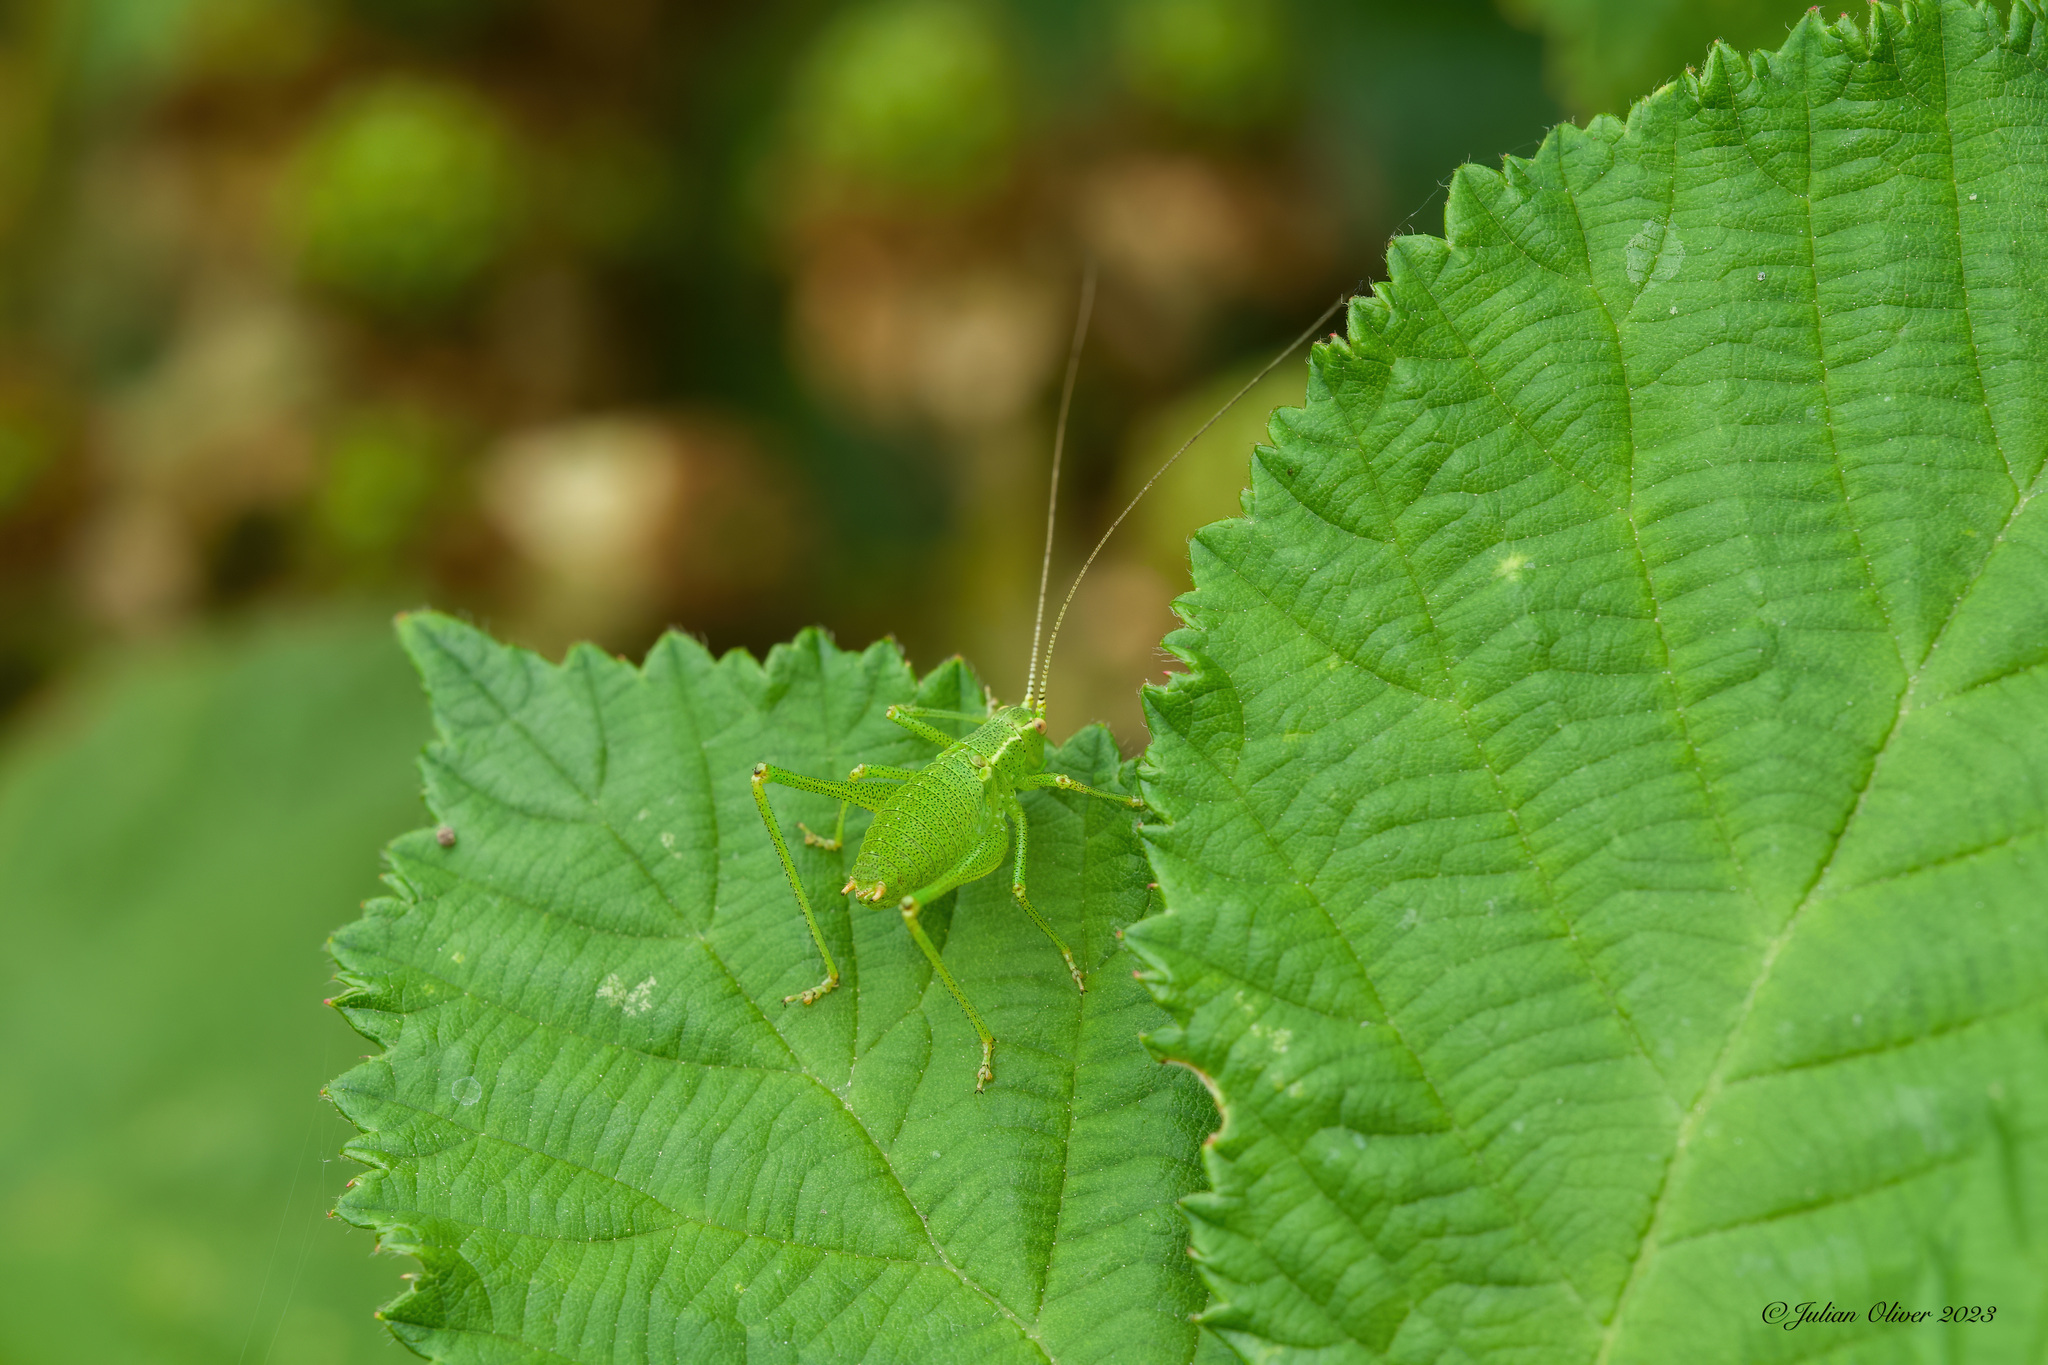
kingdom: Animalia
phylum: Arthropoda
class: Insecta
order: Orthoptera
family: Tettigoniidae
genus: Leptophyes
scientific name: Leptophyes punctatissima
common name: Speckled bush-cricket
